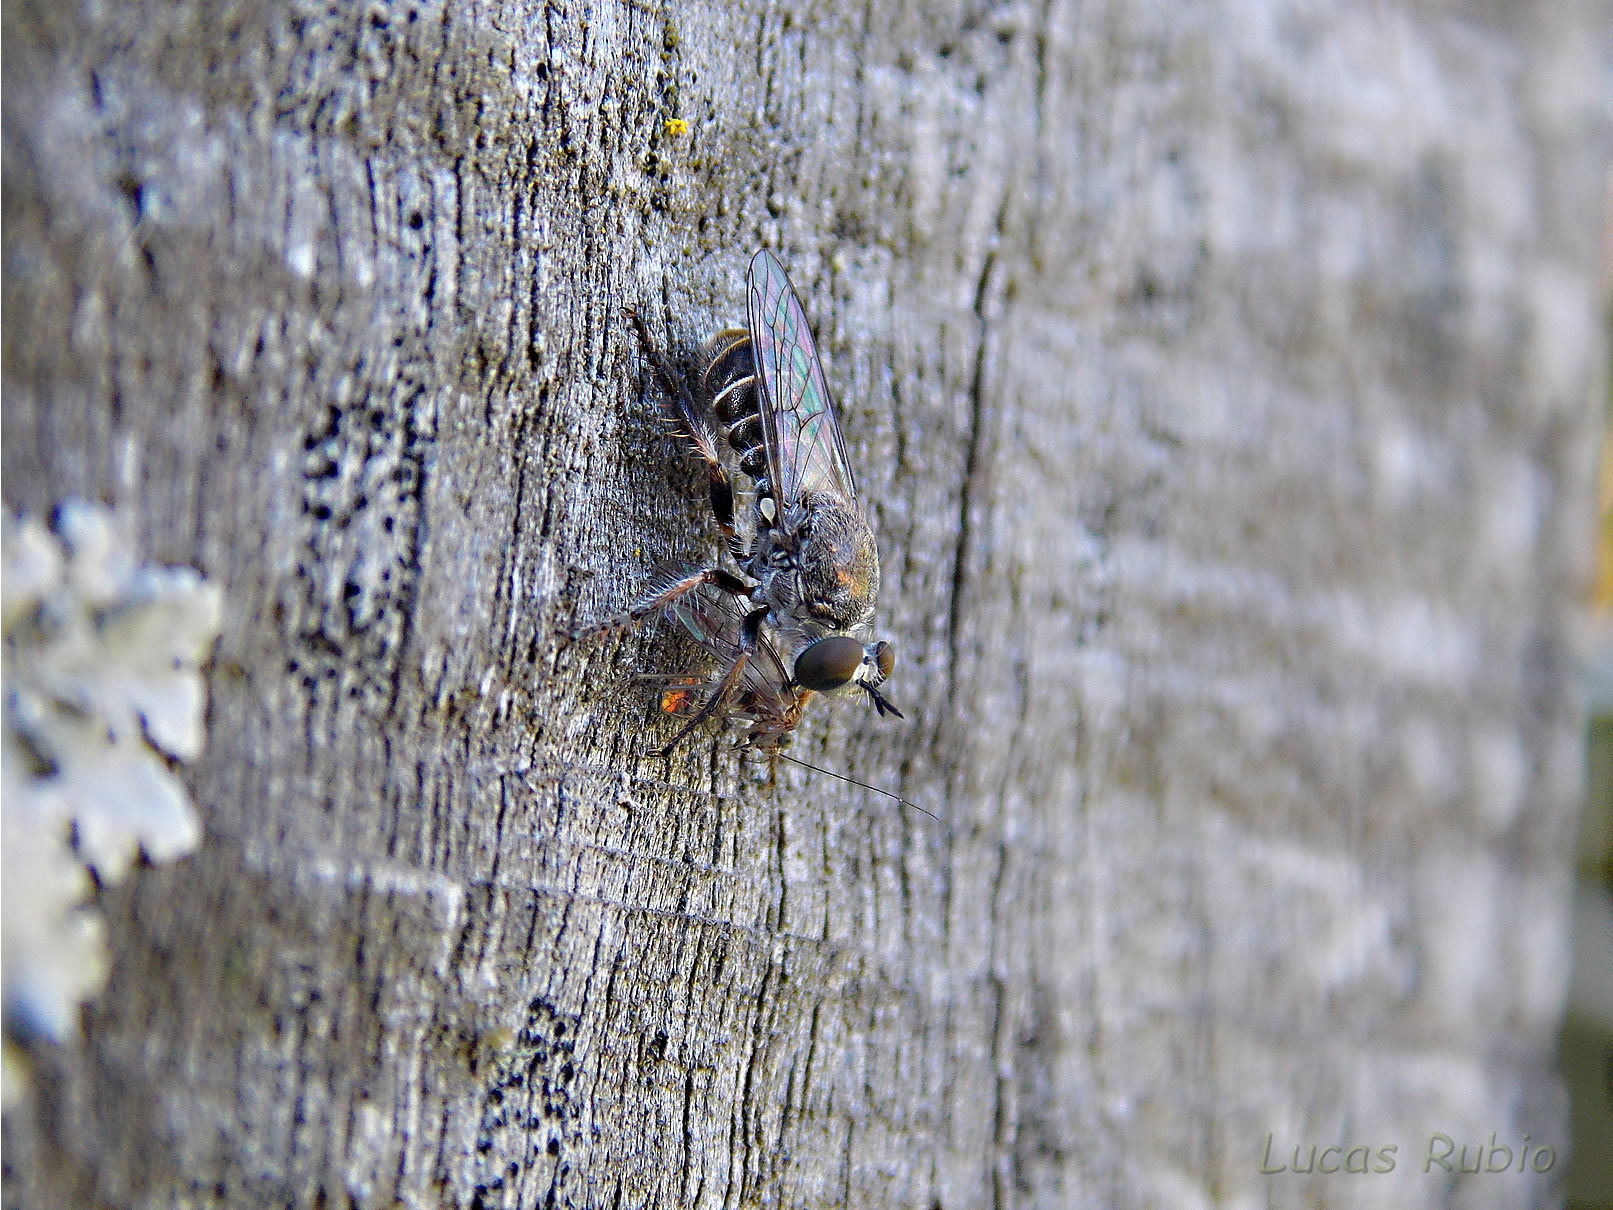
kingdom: Animalia
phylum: Arthropoda
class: Insecta
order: Diptera
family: Asilidae
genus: Atomosia
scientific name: Atomosia
